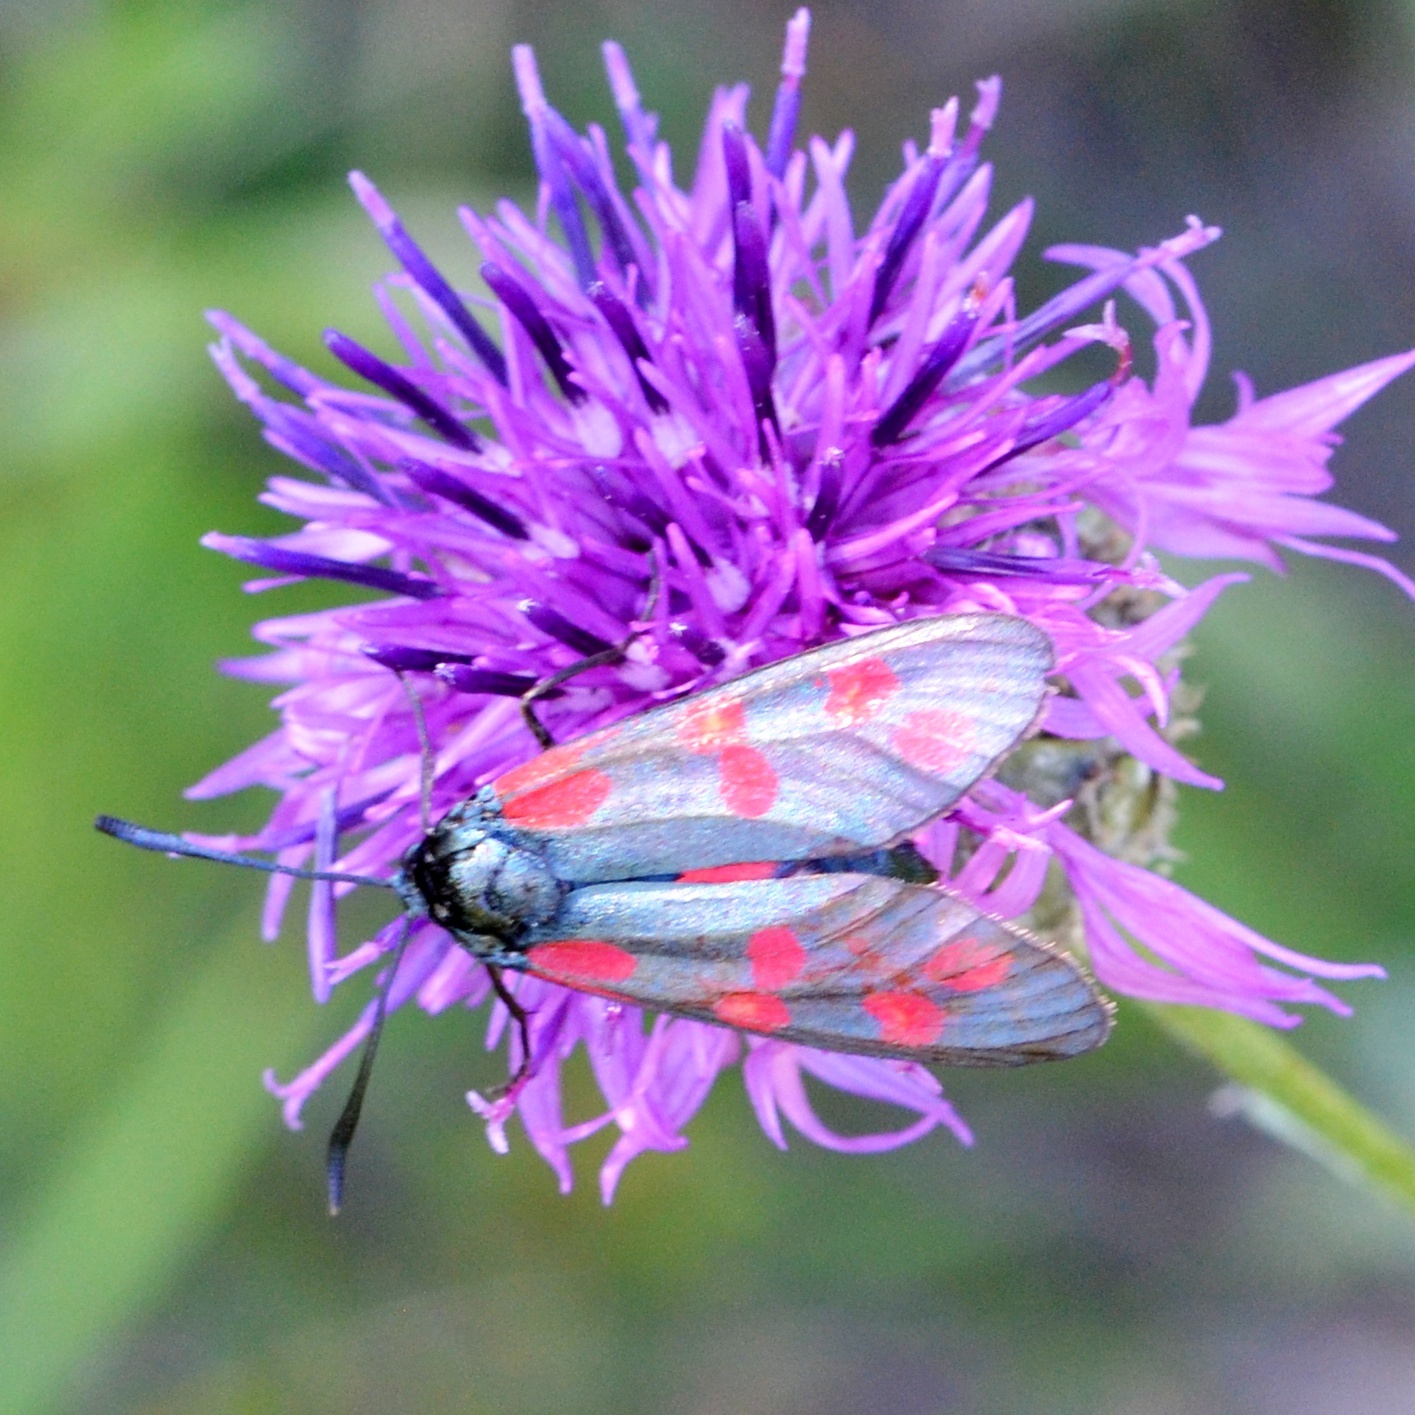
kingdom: Animalia
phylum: Arthropoda
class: Insecta
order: Lepidoptera
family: Zygaenidae
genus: Zygaena
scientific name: Zygaena filipendulae
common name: Six-spot burnet
